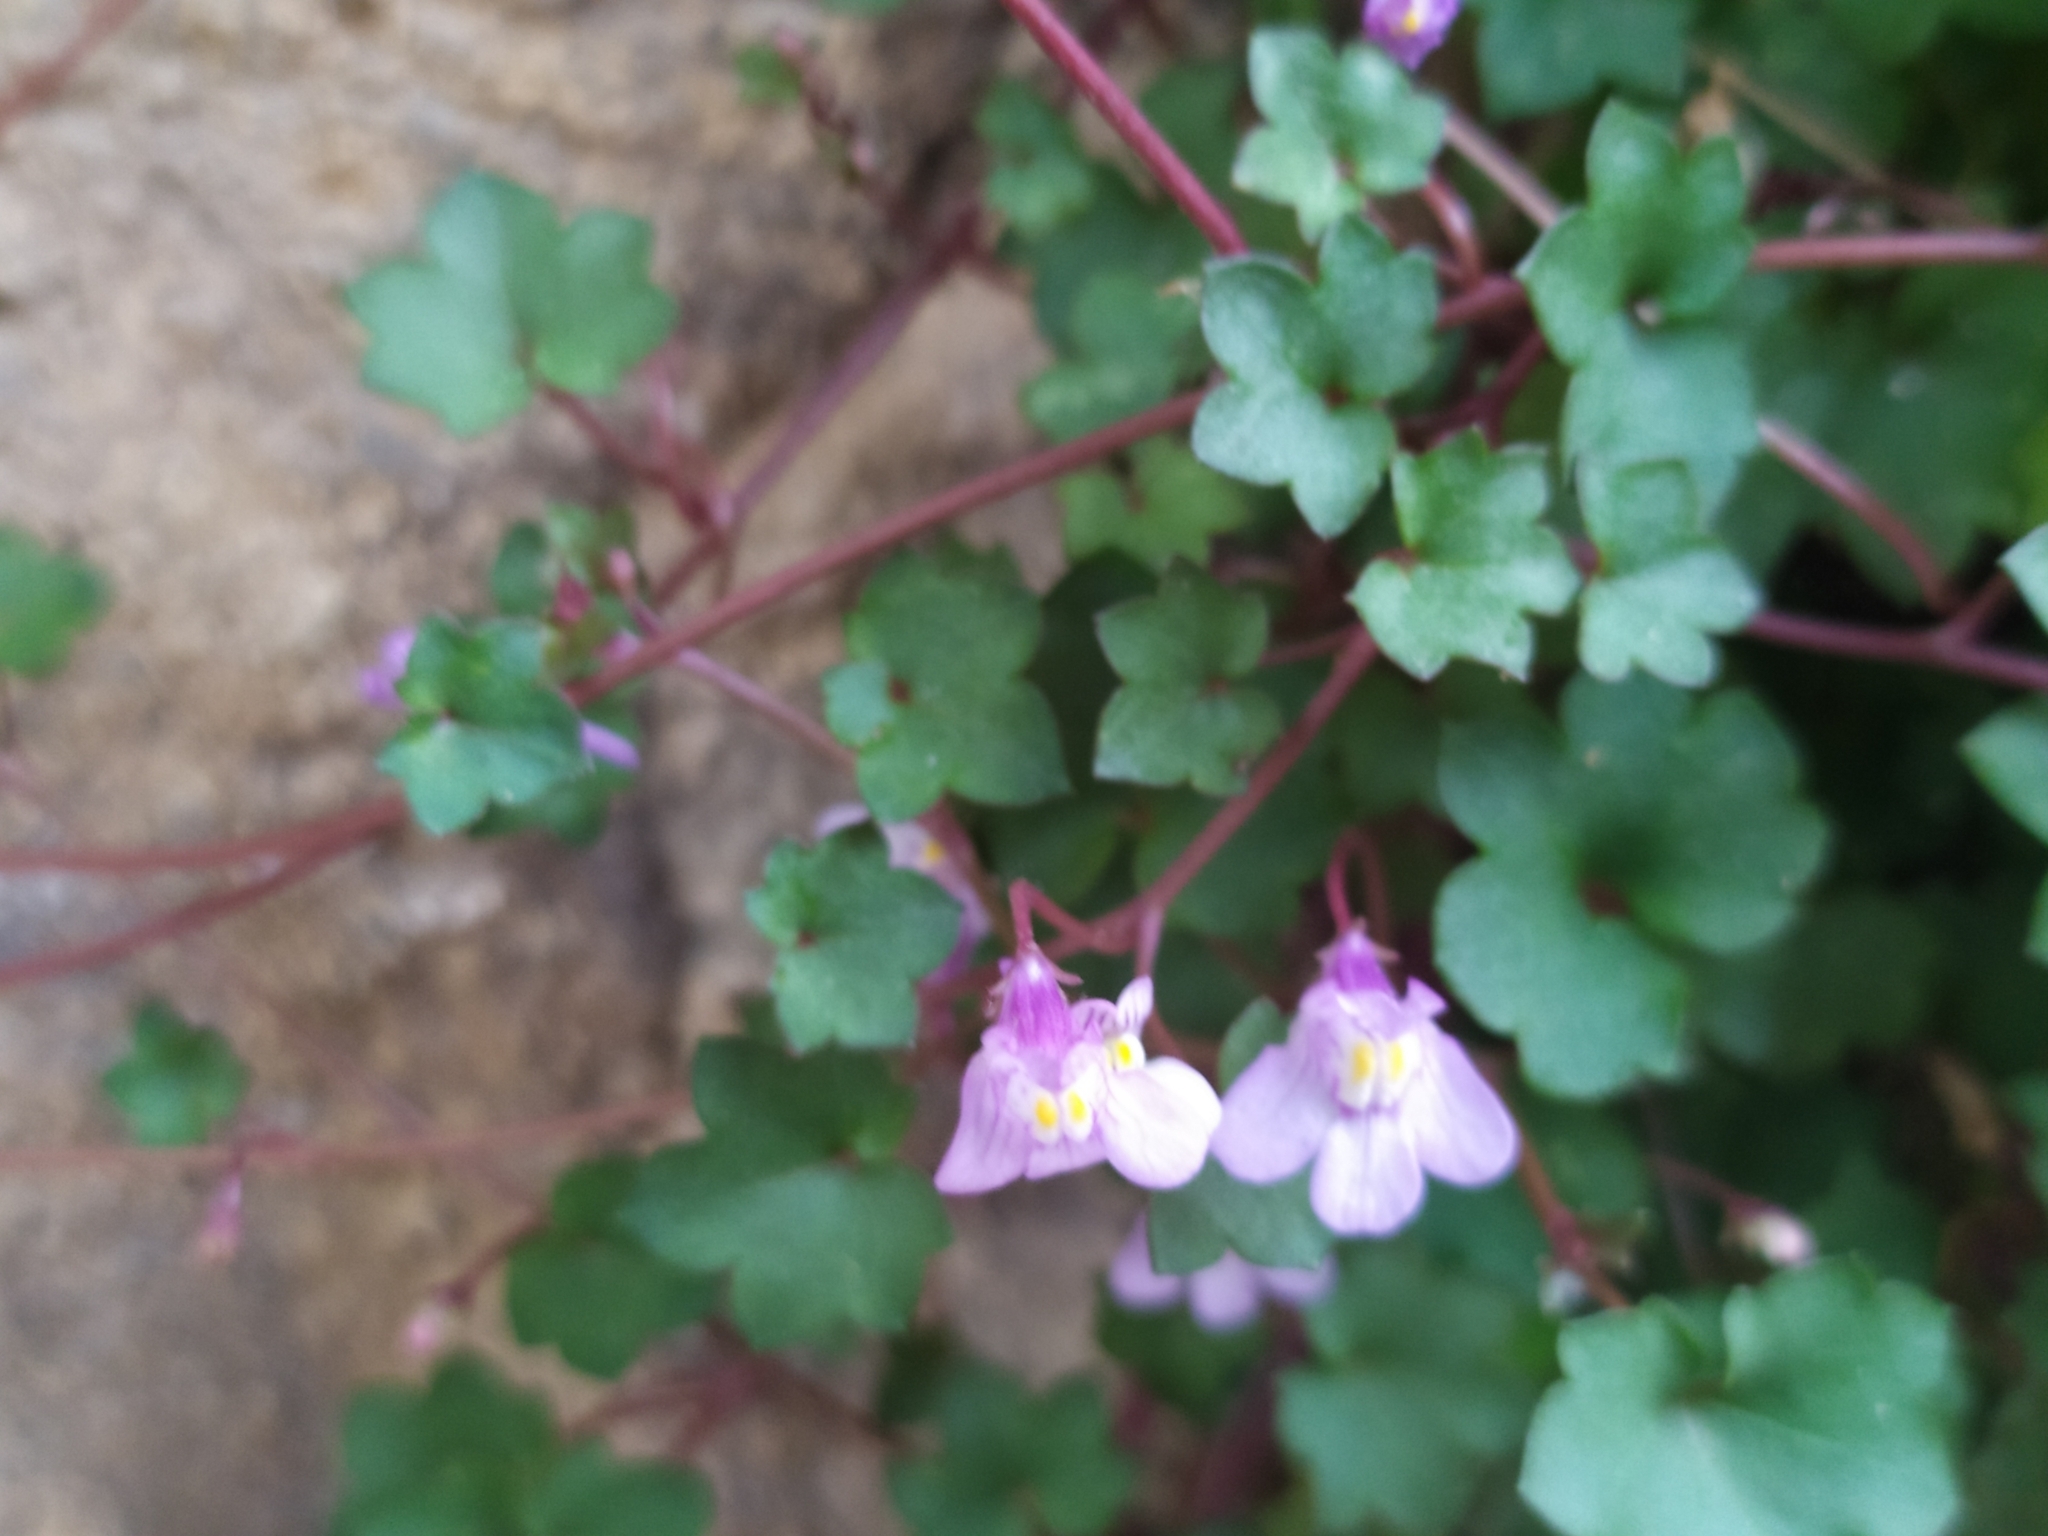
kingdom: Plantae
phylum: Tracheophyta
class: Magnoliopsida
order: Lamiales
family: Plantaginaceae
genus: Cymbalaria
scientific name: Cymbalaria muralis
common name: Ivy-leaved toadflax
